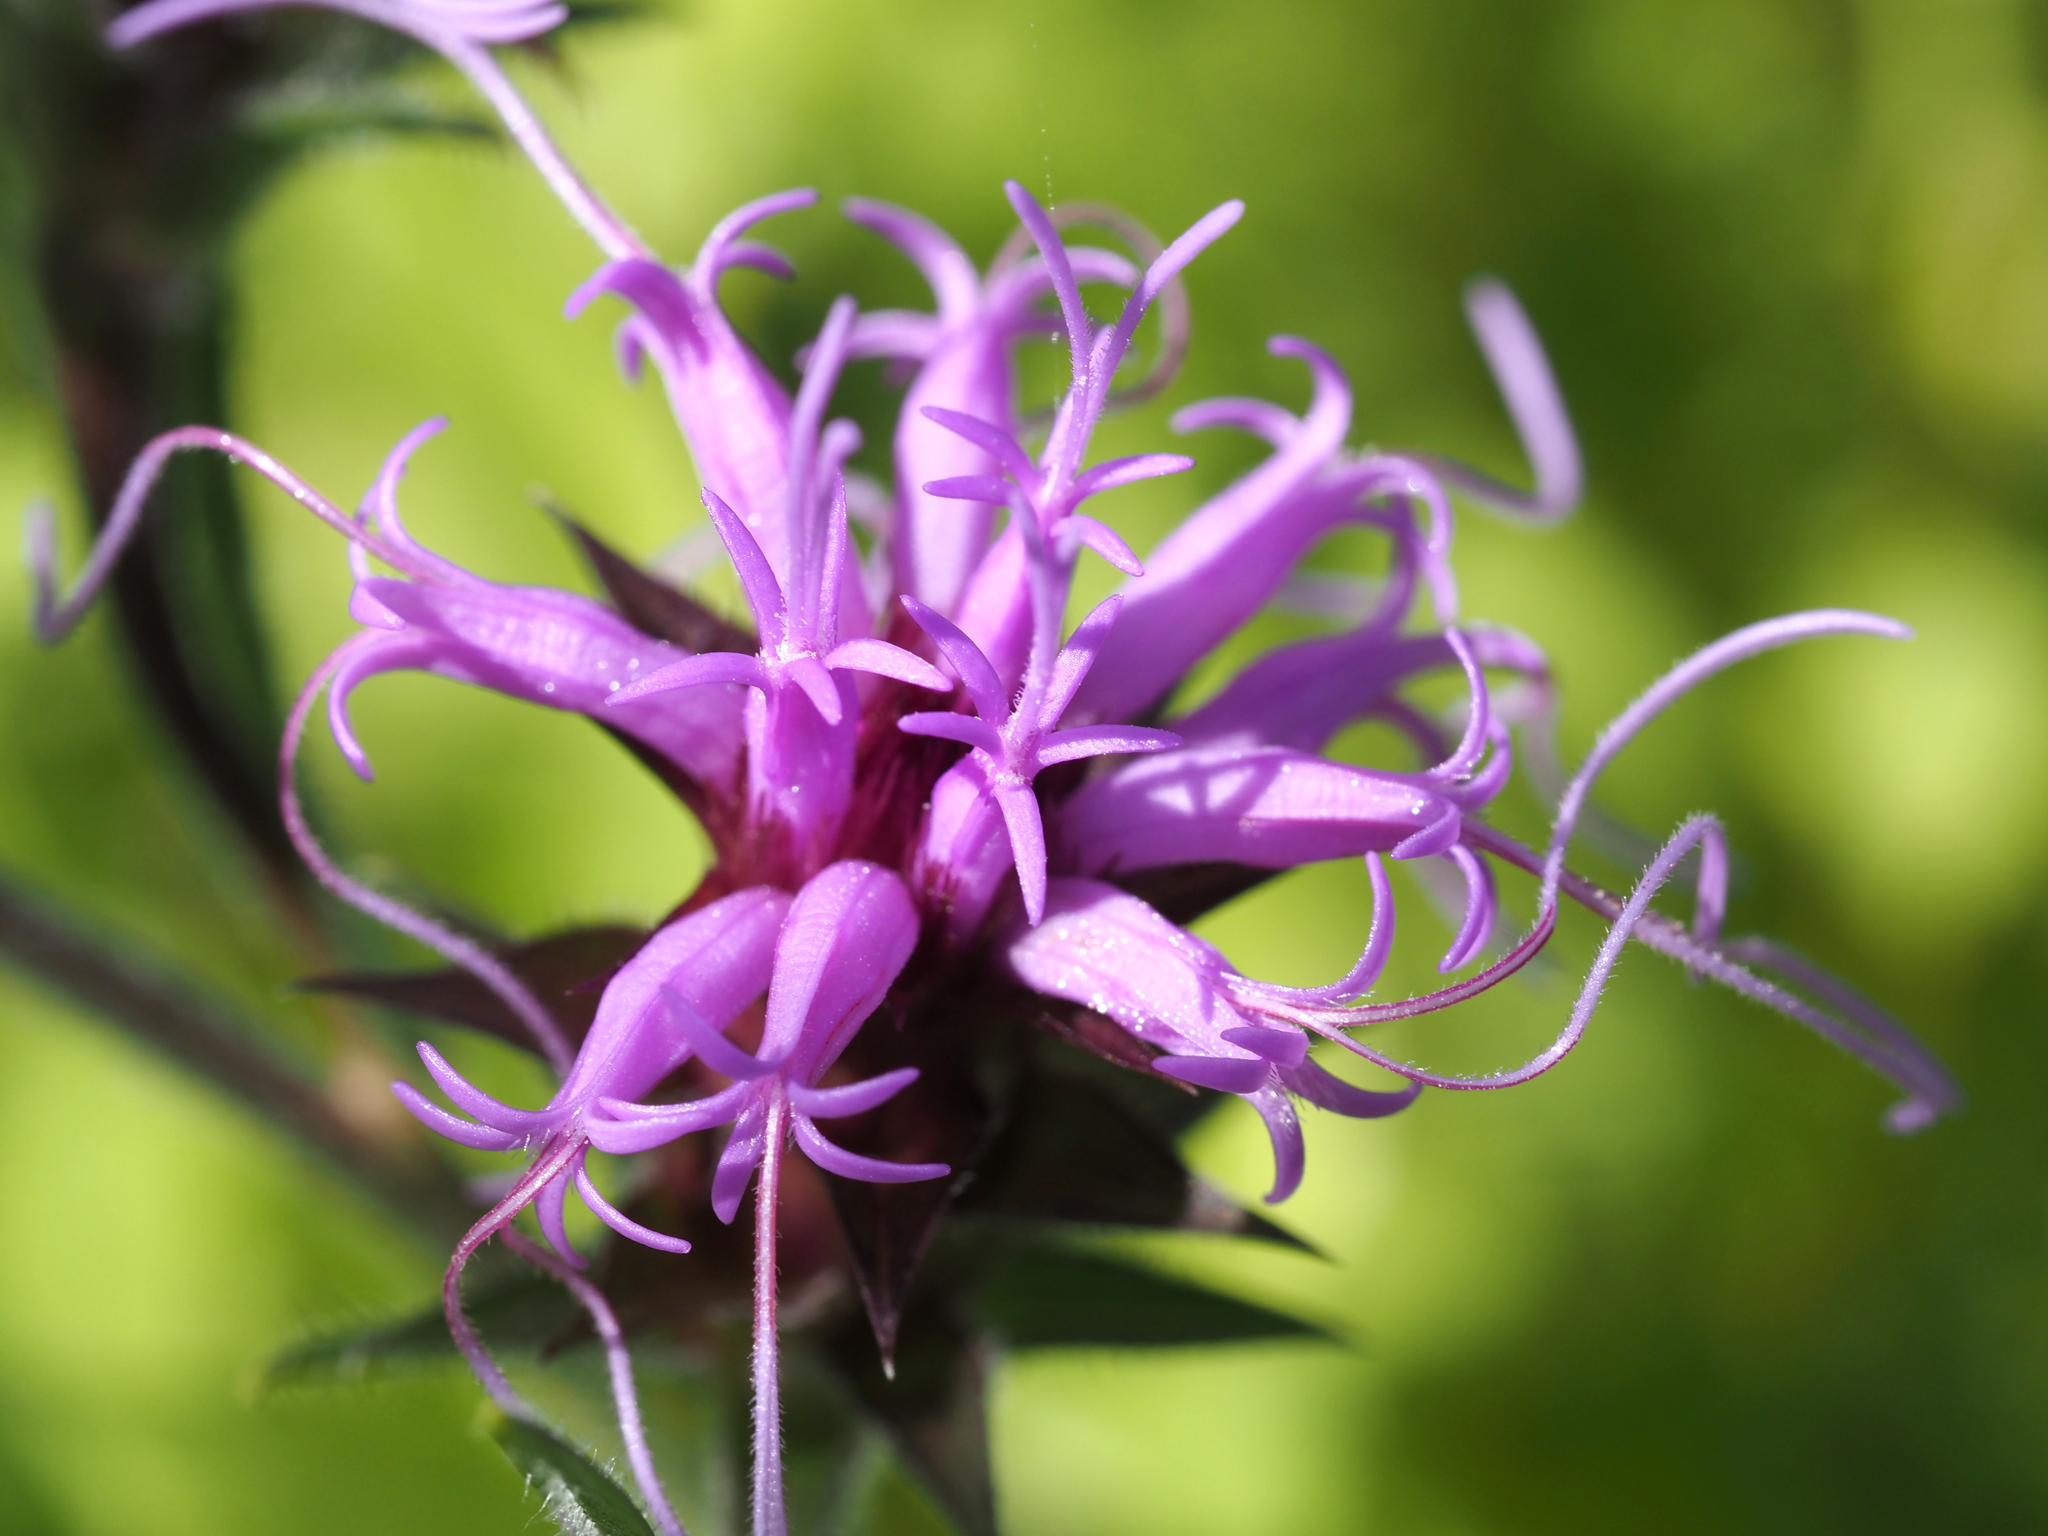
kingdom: Plantae
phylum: Tracheophyta
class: Magnoliopsida
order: Asterales
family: Asteraceae
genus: Liatris
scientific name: Liatris squarrosa
